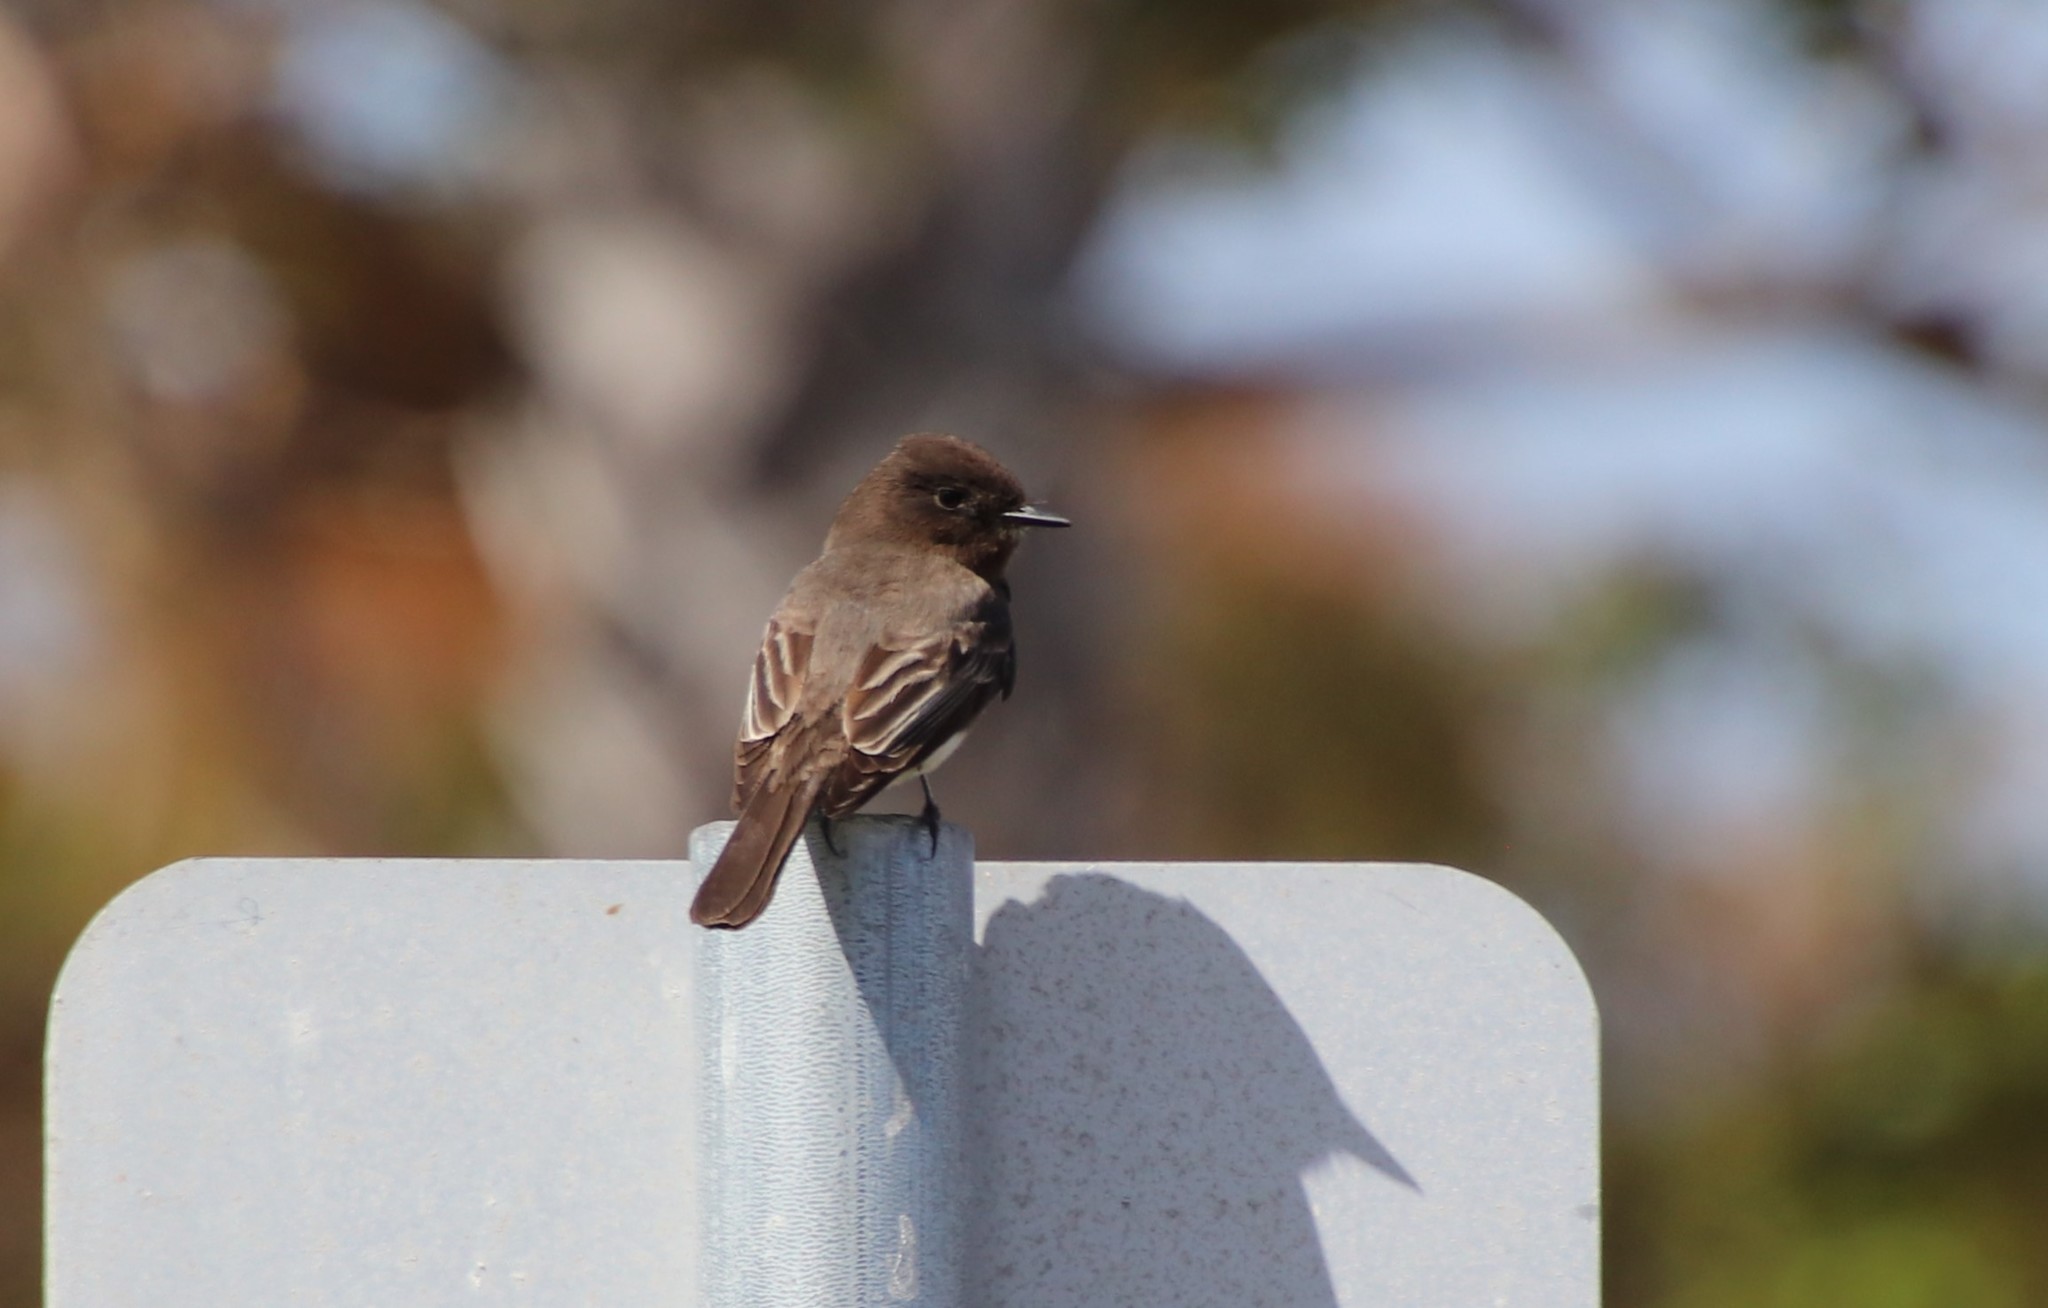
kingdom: Animalia
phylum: Chordata
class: Aves
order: Passeriformes
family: Tyrannidae
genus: Sayornis
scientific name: Sayornis nigricans
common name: Black phoebe
